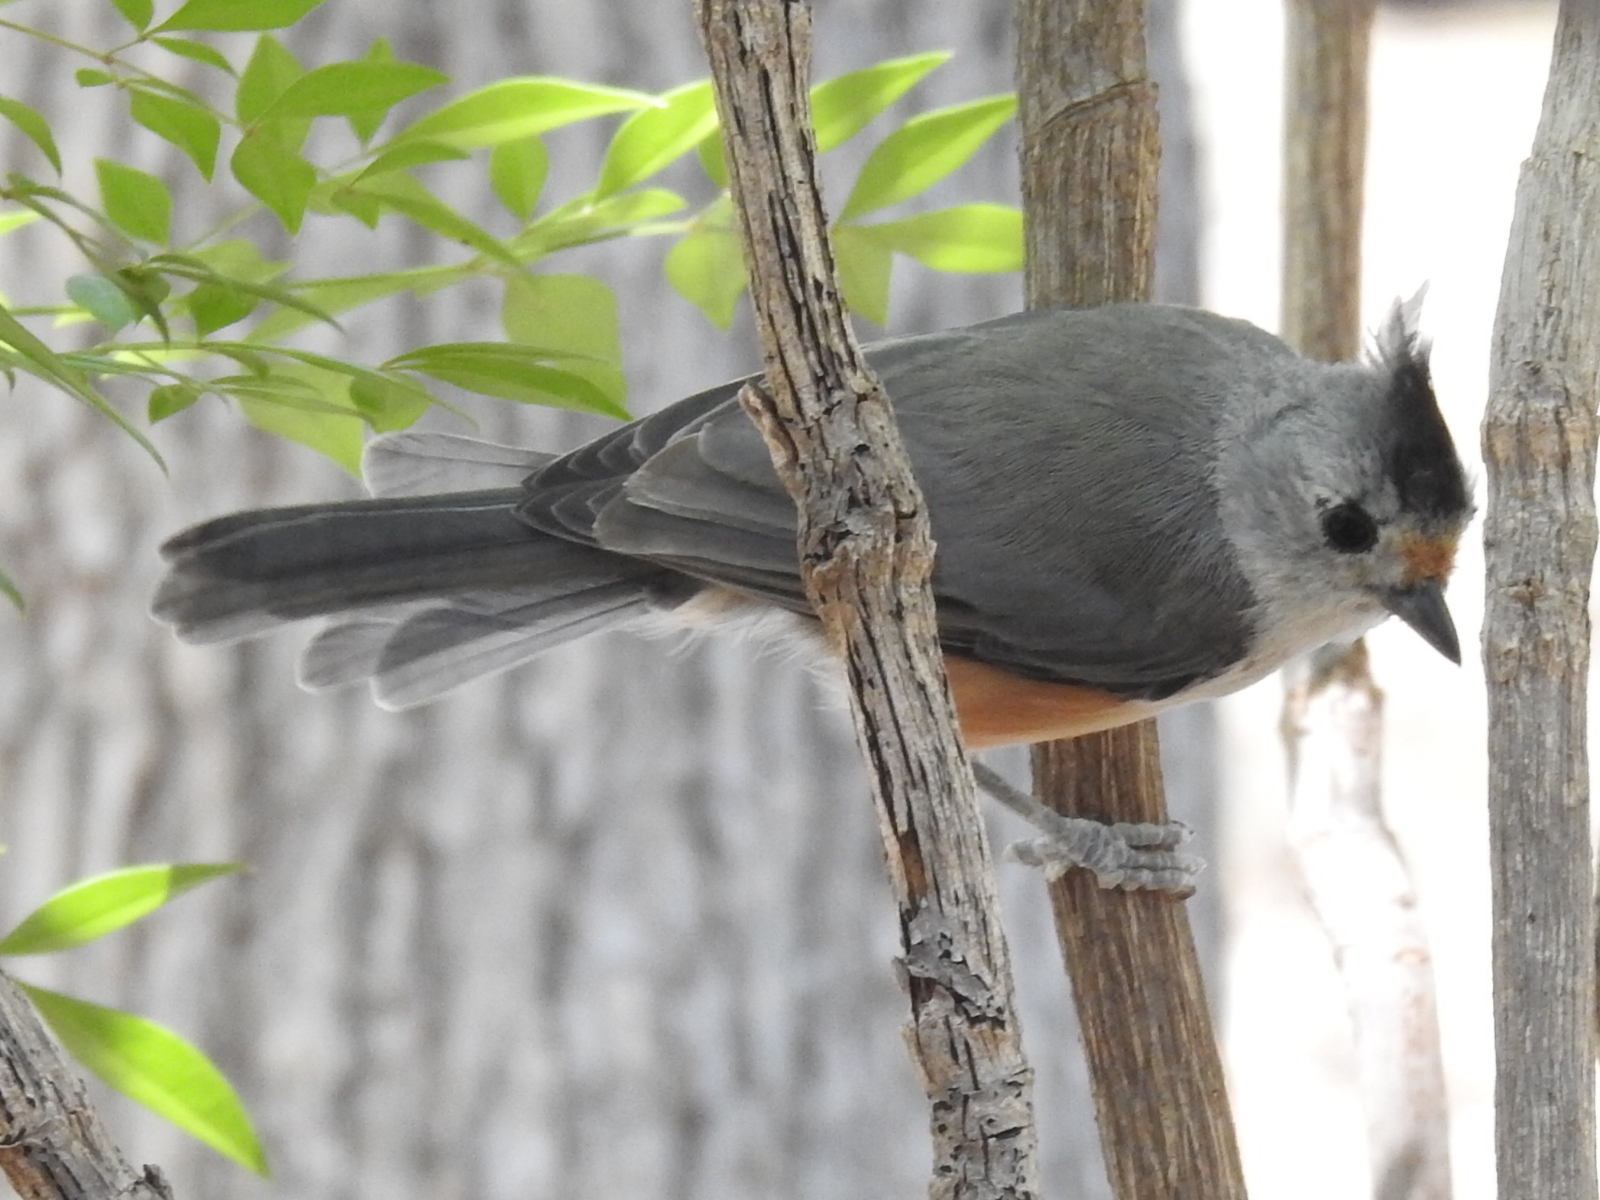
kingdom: Animalia
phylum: Chordata
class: Aves
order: Passeriformes
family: Paridae
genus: Baeolophus
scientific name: Baeolophus
